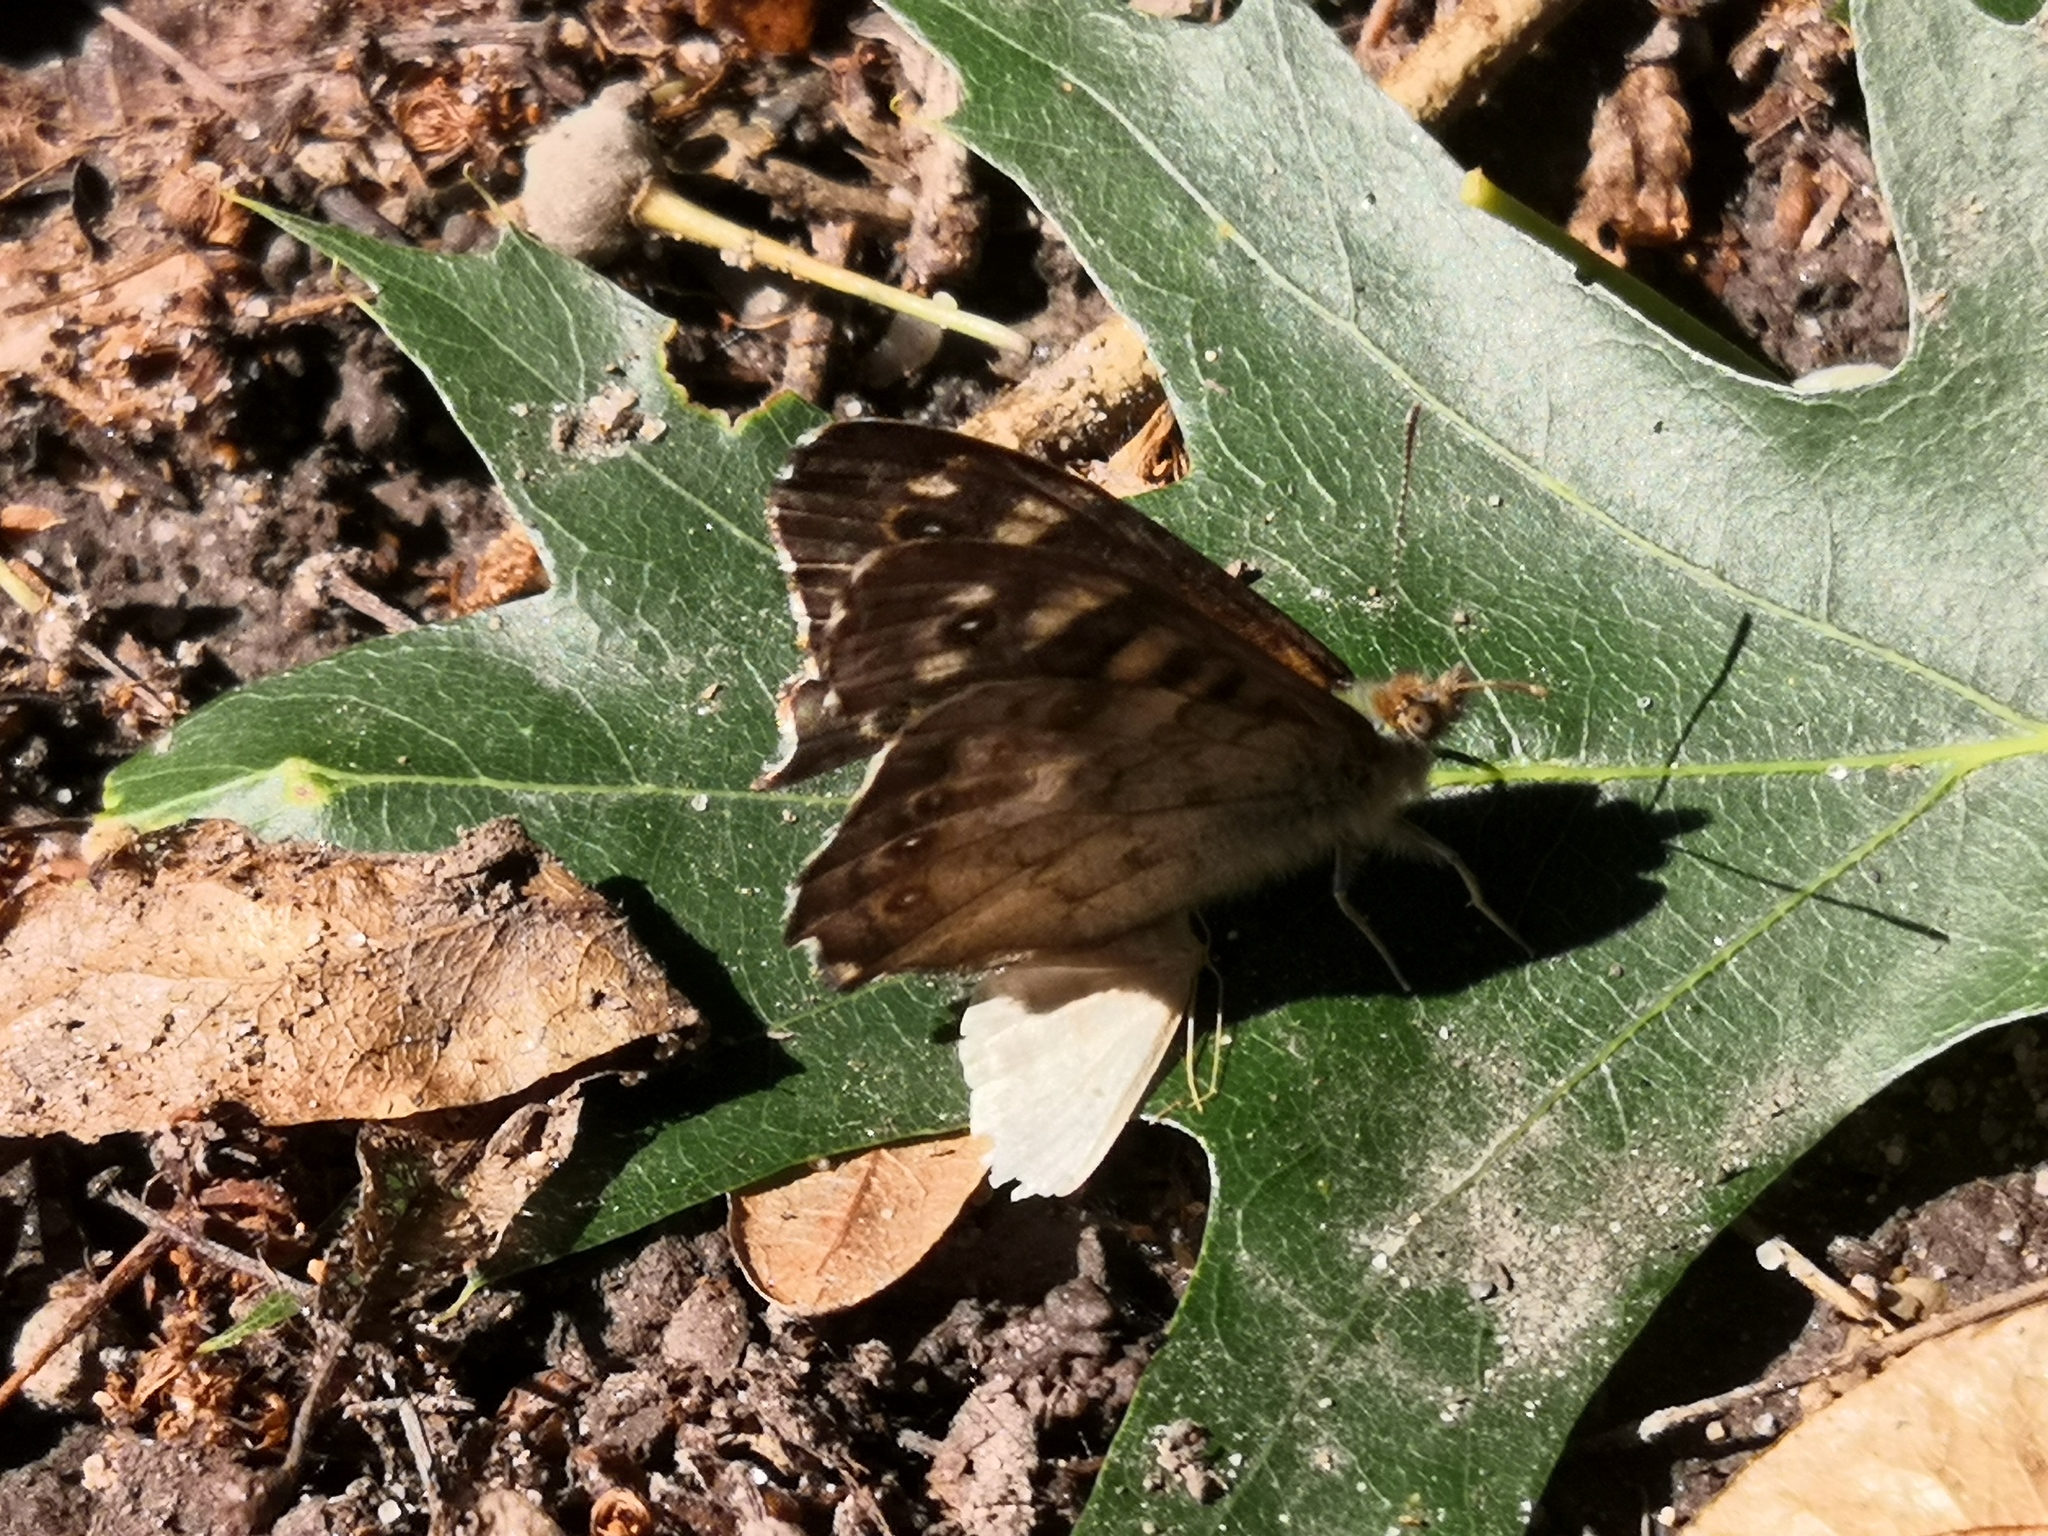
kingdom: Animalia
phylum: Arthropoda
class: Insecta
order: Lepidoptera
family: Nymphalidae
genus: Pararge
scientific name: Pararge aegeria
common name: Speckled wood
